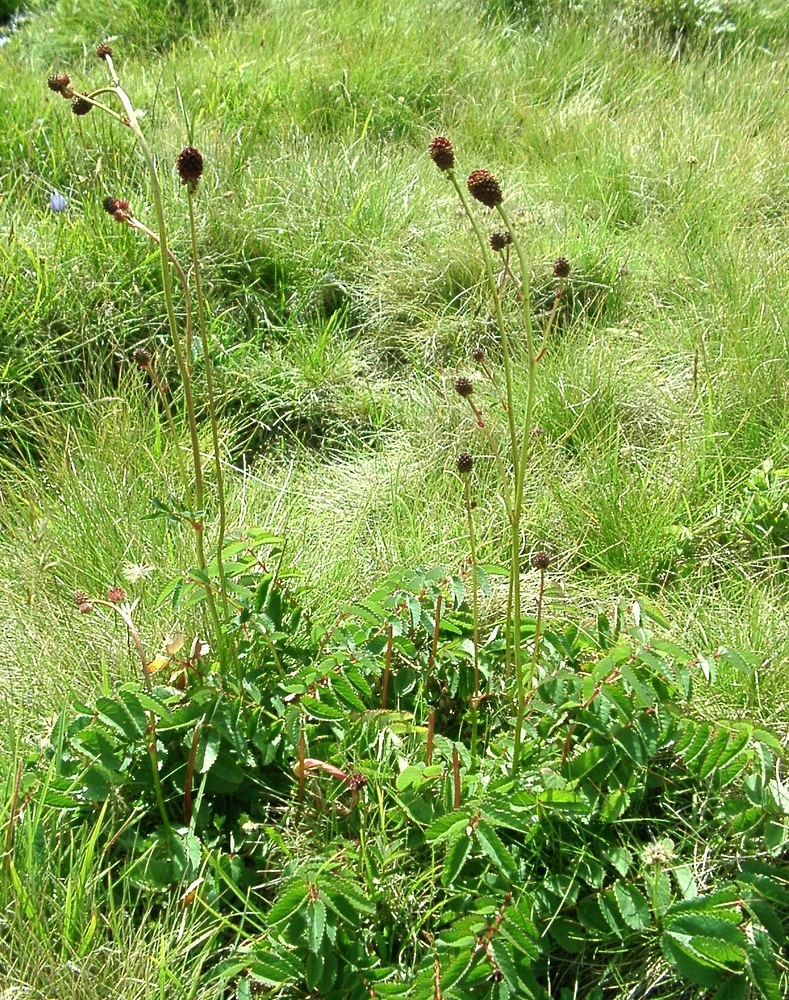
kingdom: Plantae
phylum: Tracheophyta
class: Magnoliopsida
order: Rosales
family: Rosaceae
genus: Sanguisorba
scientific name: Sanguisorba officinalis
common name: Great burnet
